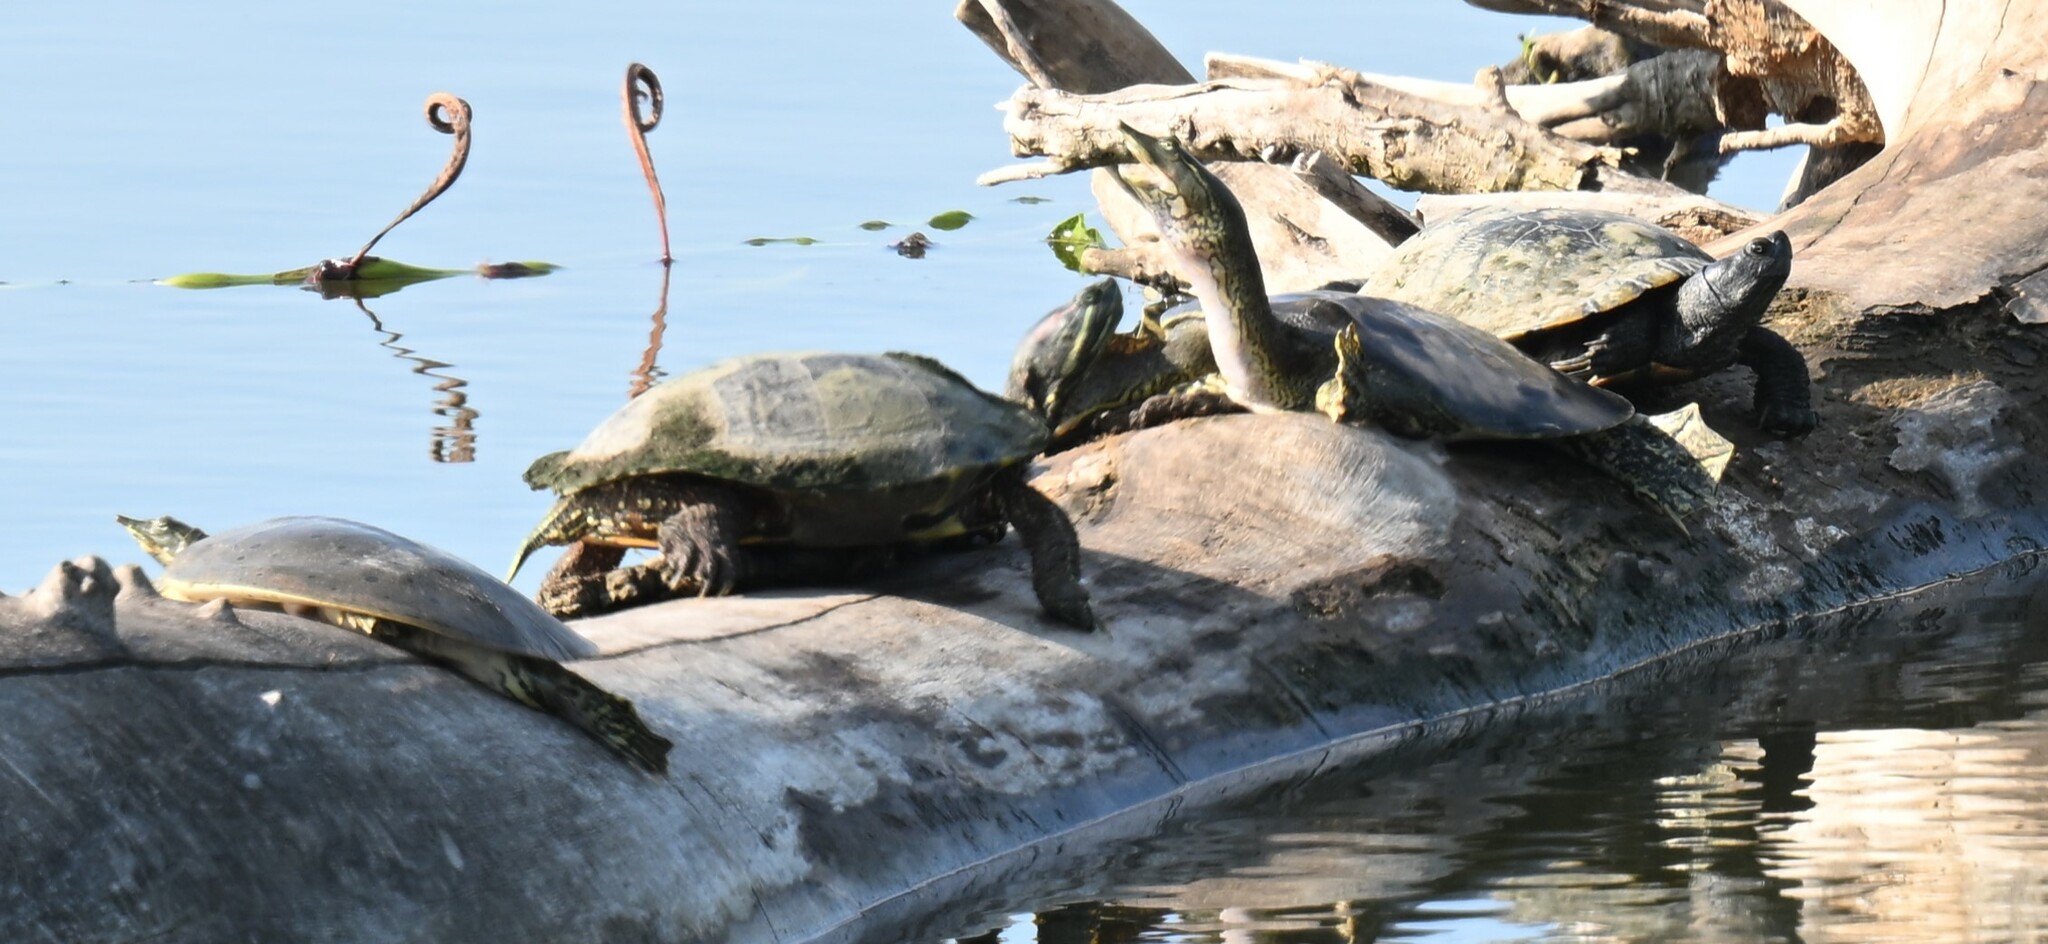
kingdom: Animalia
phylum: Chordata
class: Testudines
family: Trionychidae
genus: Apalone
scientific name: Apalone spinifera
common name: Spiny softshell turtle
